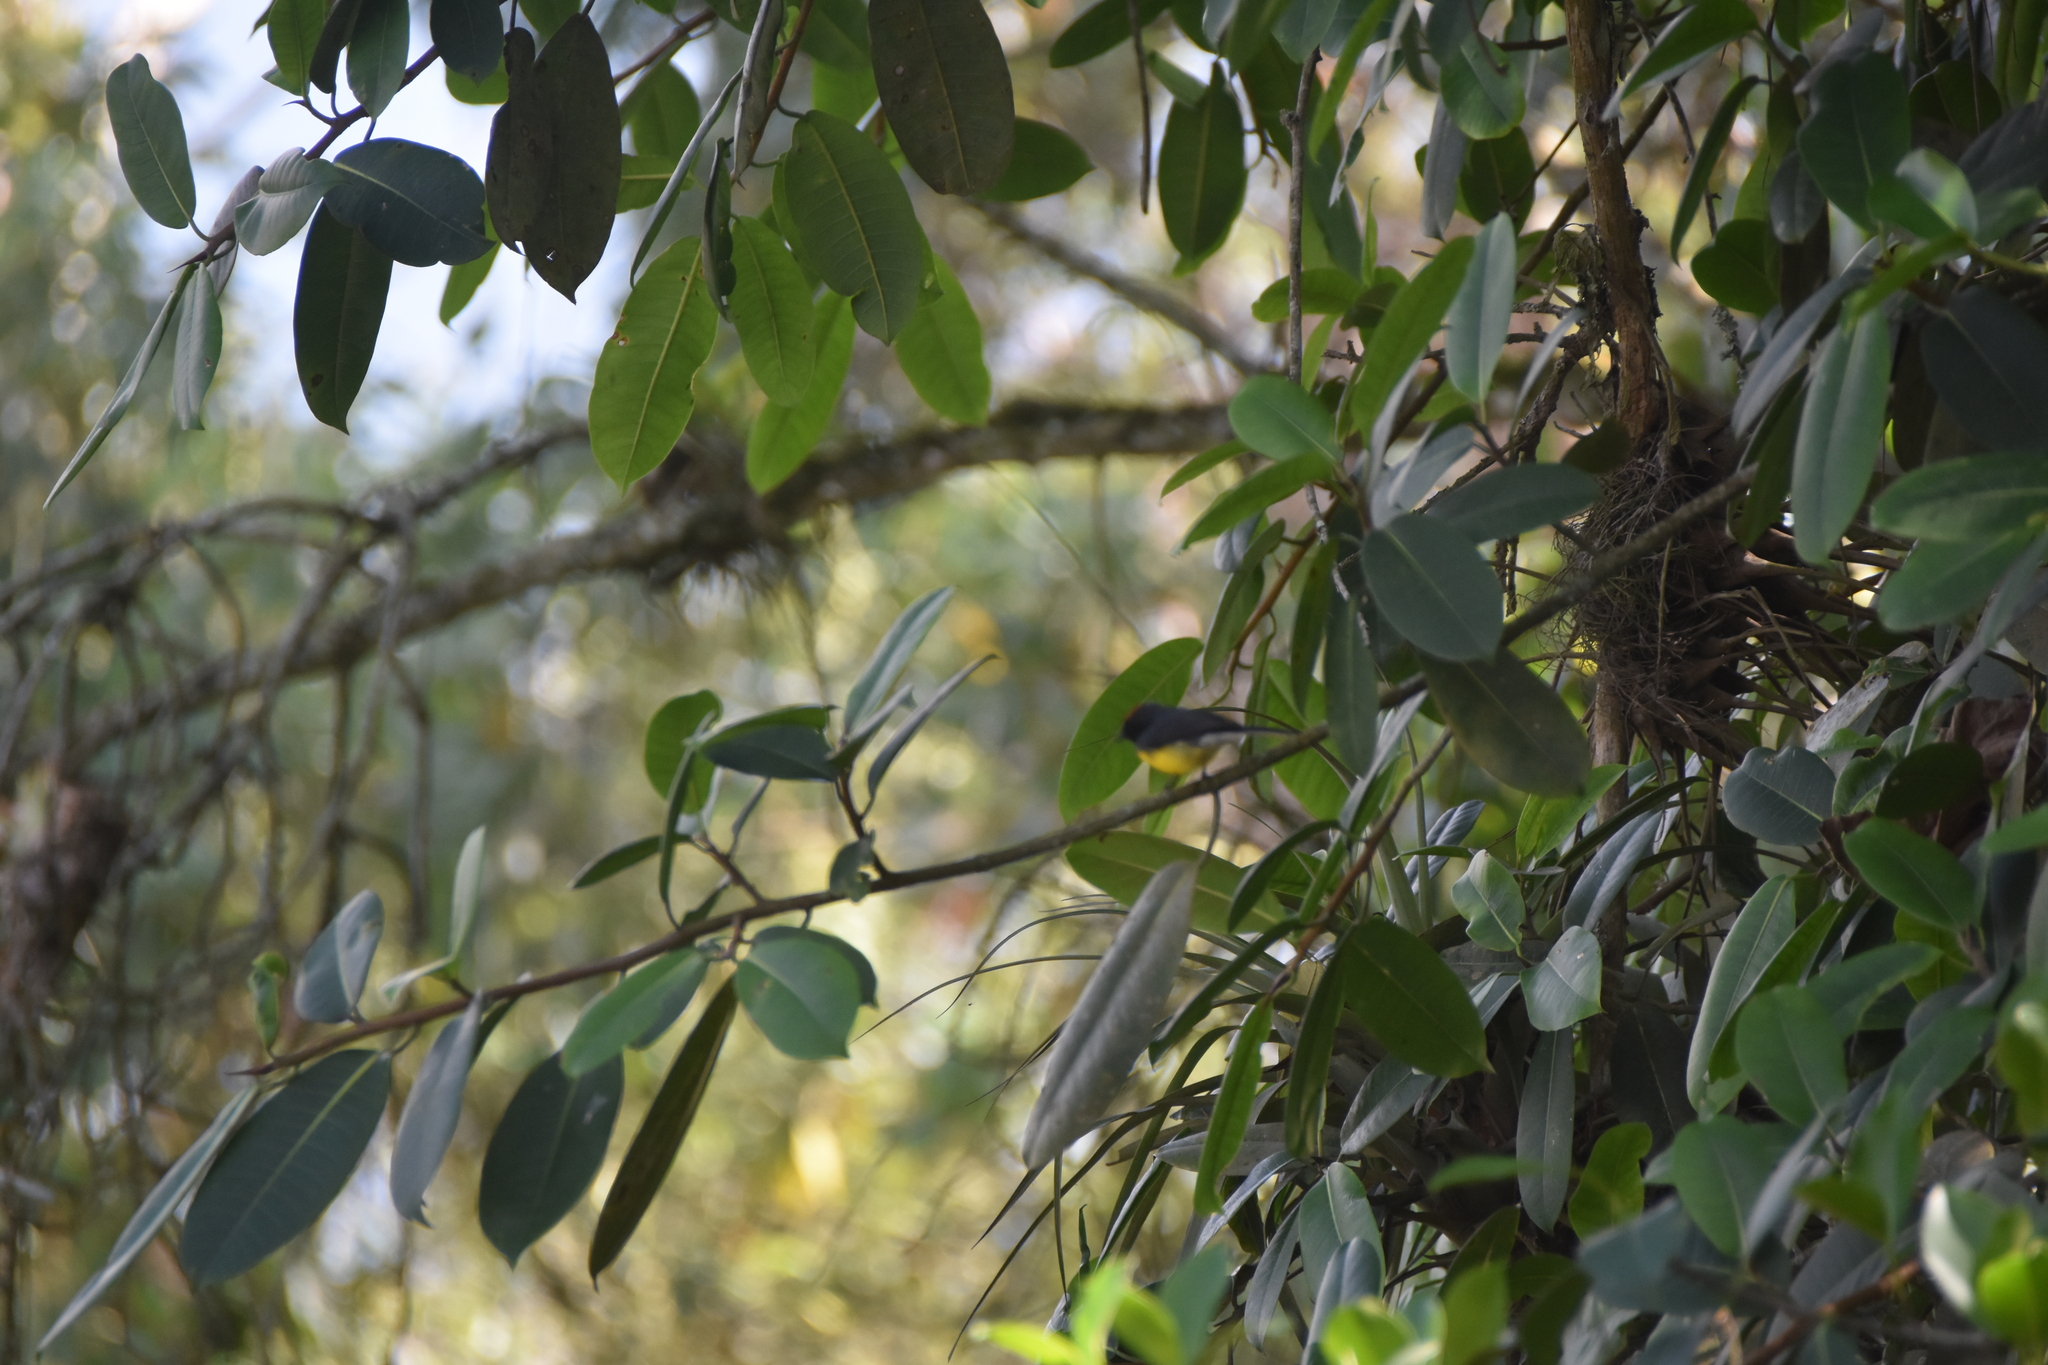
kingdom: Animalia
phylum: Chordata
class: Aves
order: Passeriformes
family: Parulidae
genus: Myioborus
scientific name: Myioborus miniatus
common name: Slate-throated redstart
